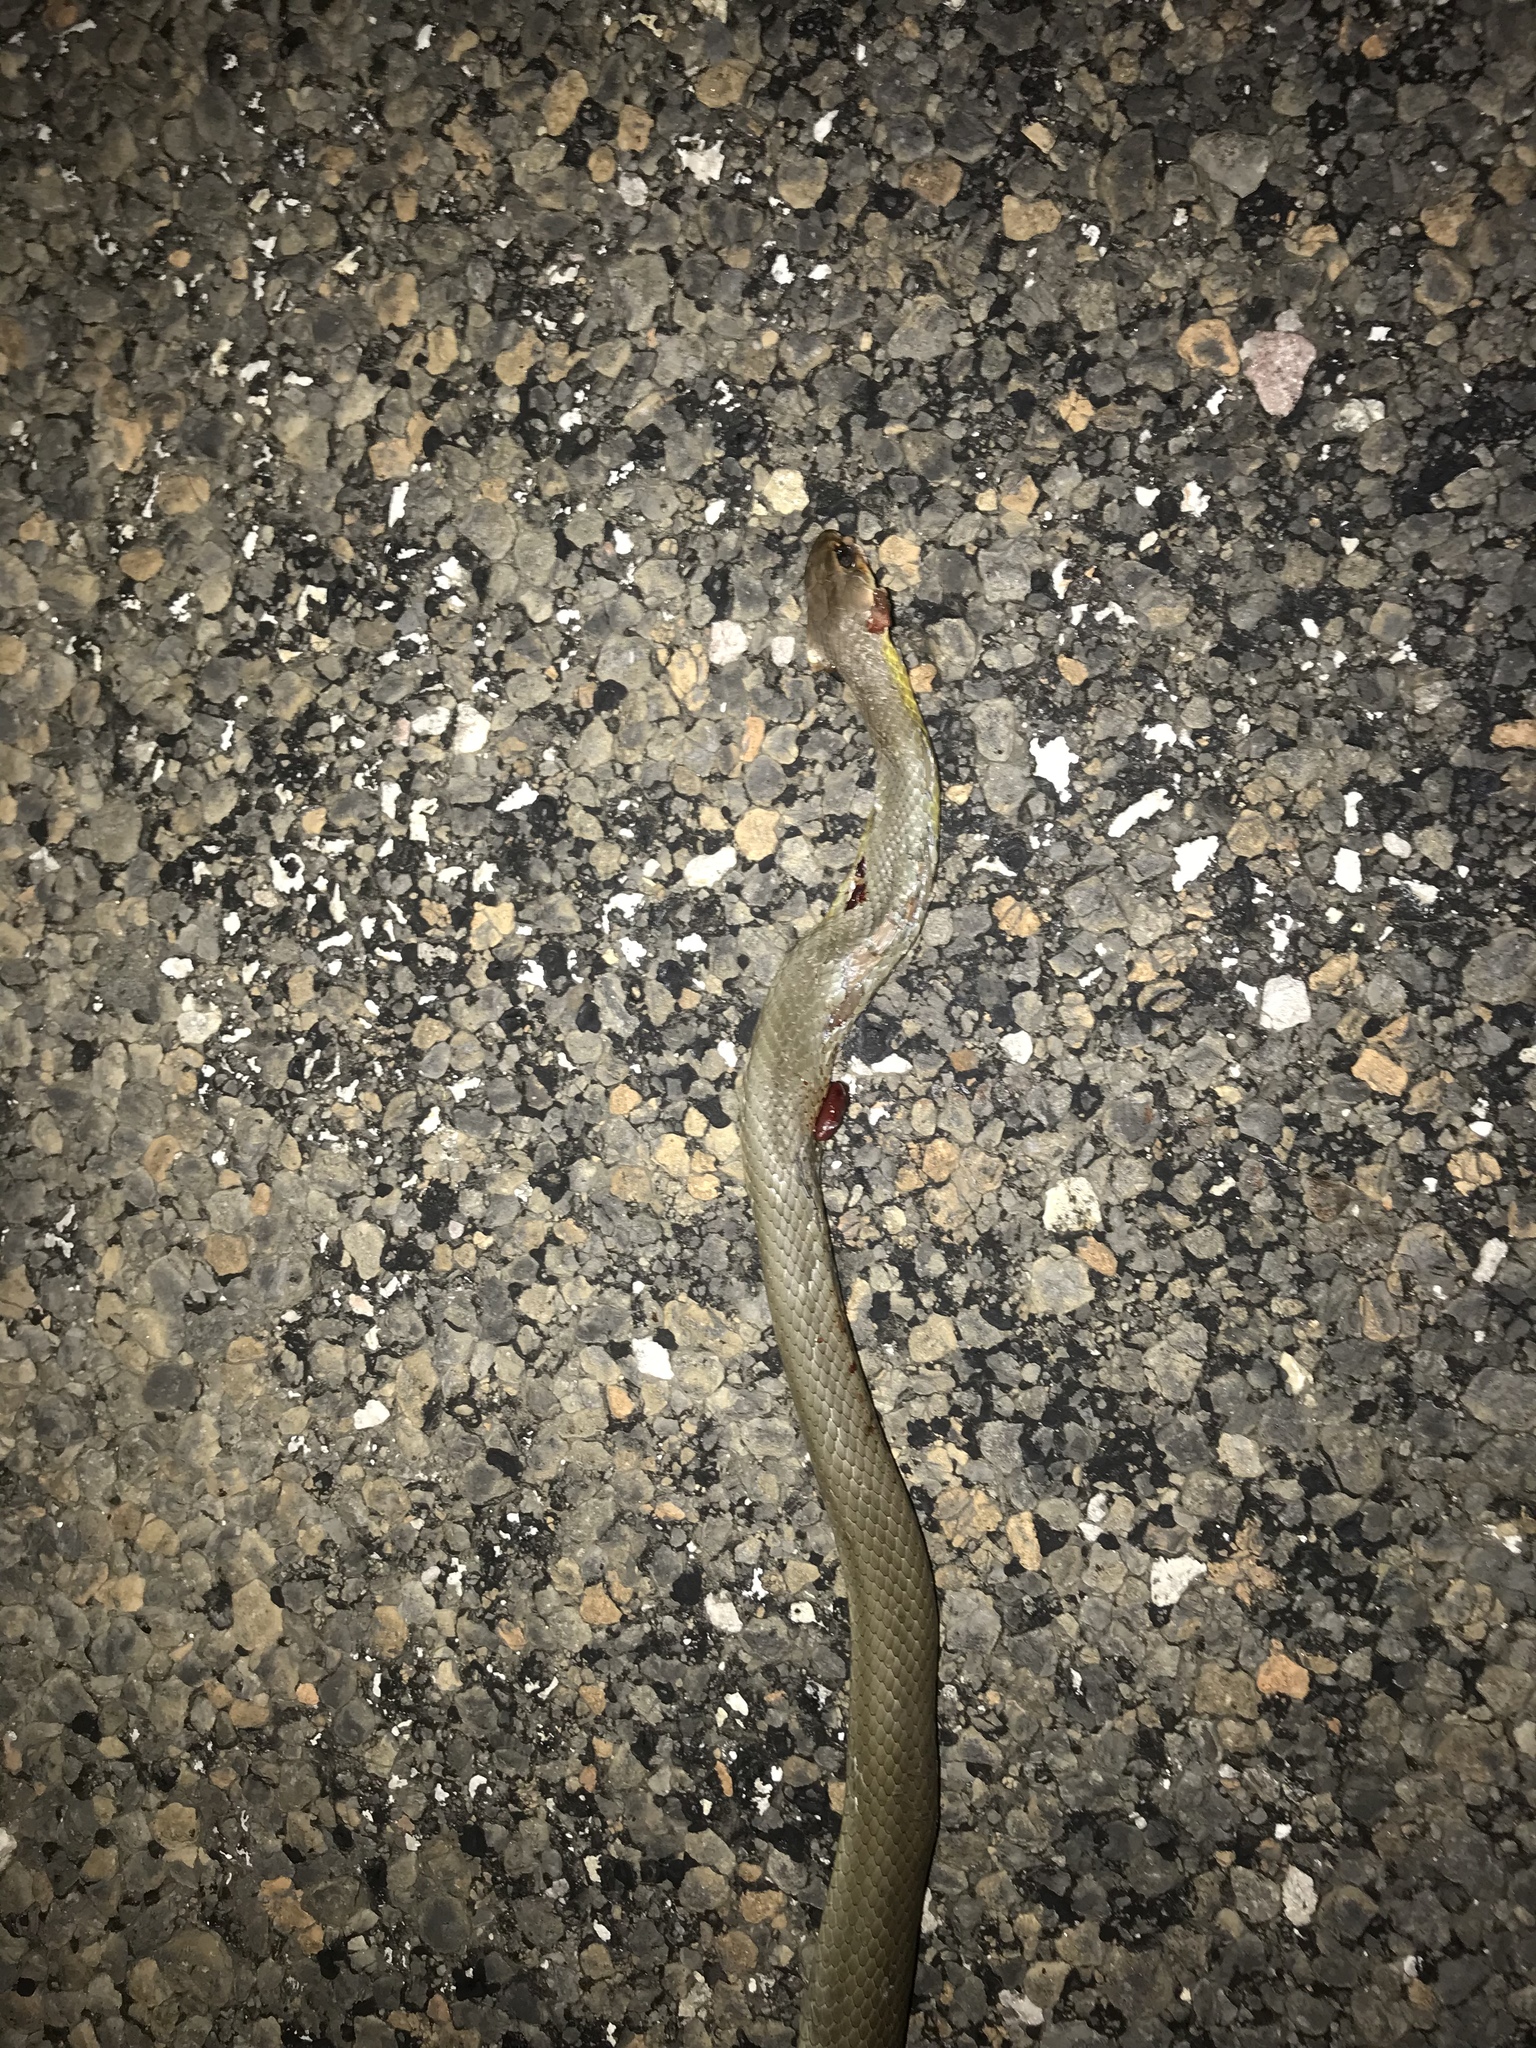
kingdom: Animalia
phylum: Chordata
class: Squamata
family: Colubridae
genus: Coluber
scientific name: Coluber constrictor
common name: Eastern racer
